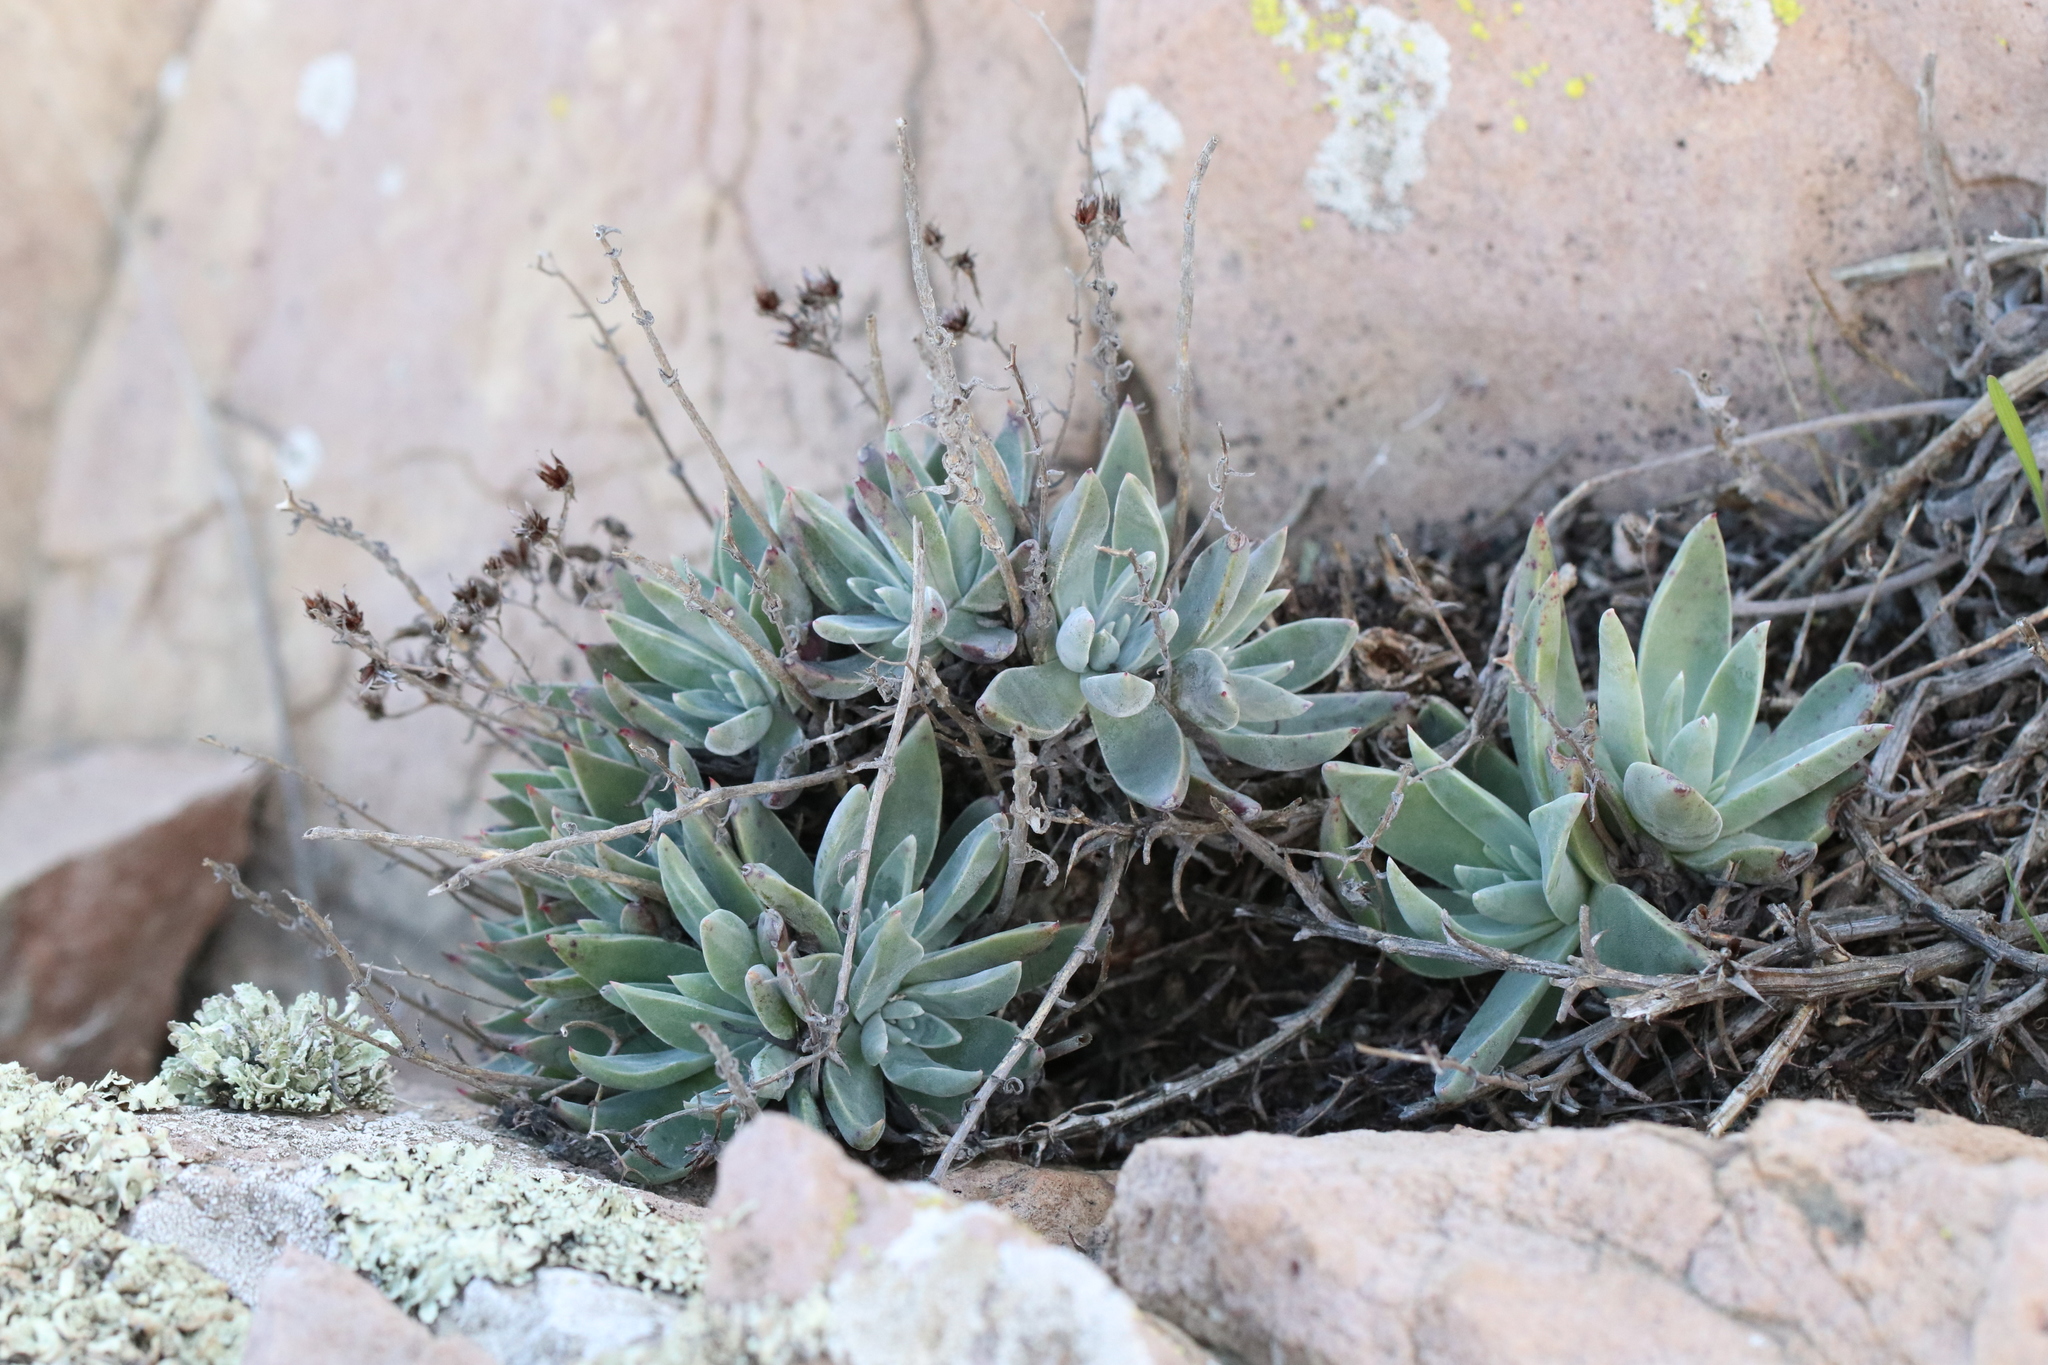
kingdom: Plantae
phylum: Tracheophyta
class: Magnoliopsida
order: Saxifragales
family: Crassulaceae
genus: Dudleya
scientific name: Dudleya verityi
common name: Verity dudleya
